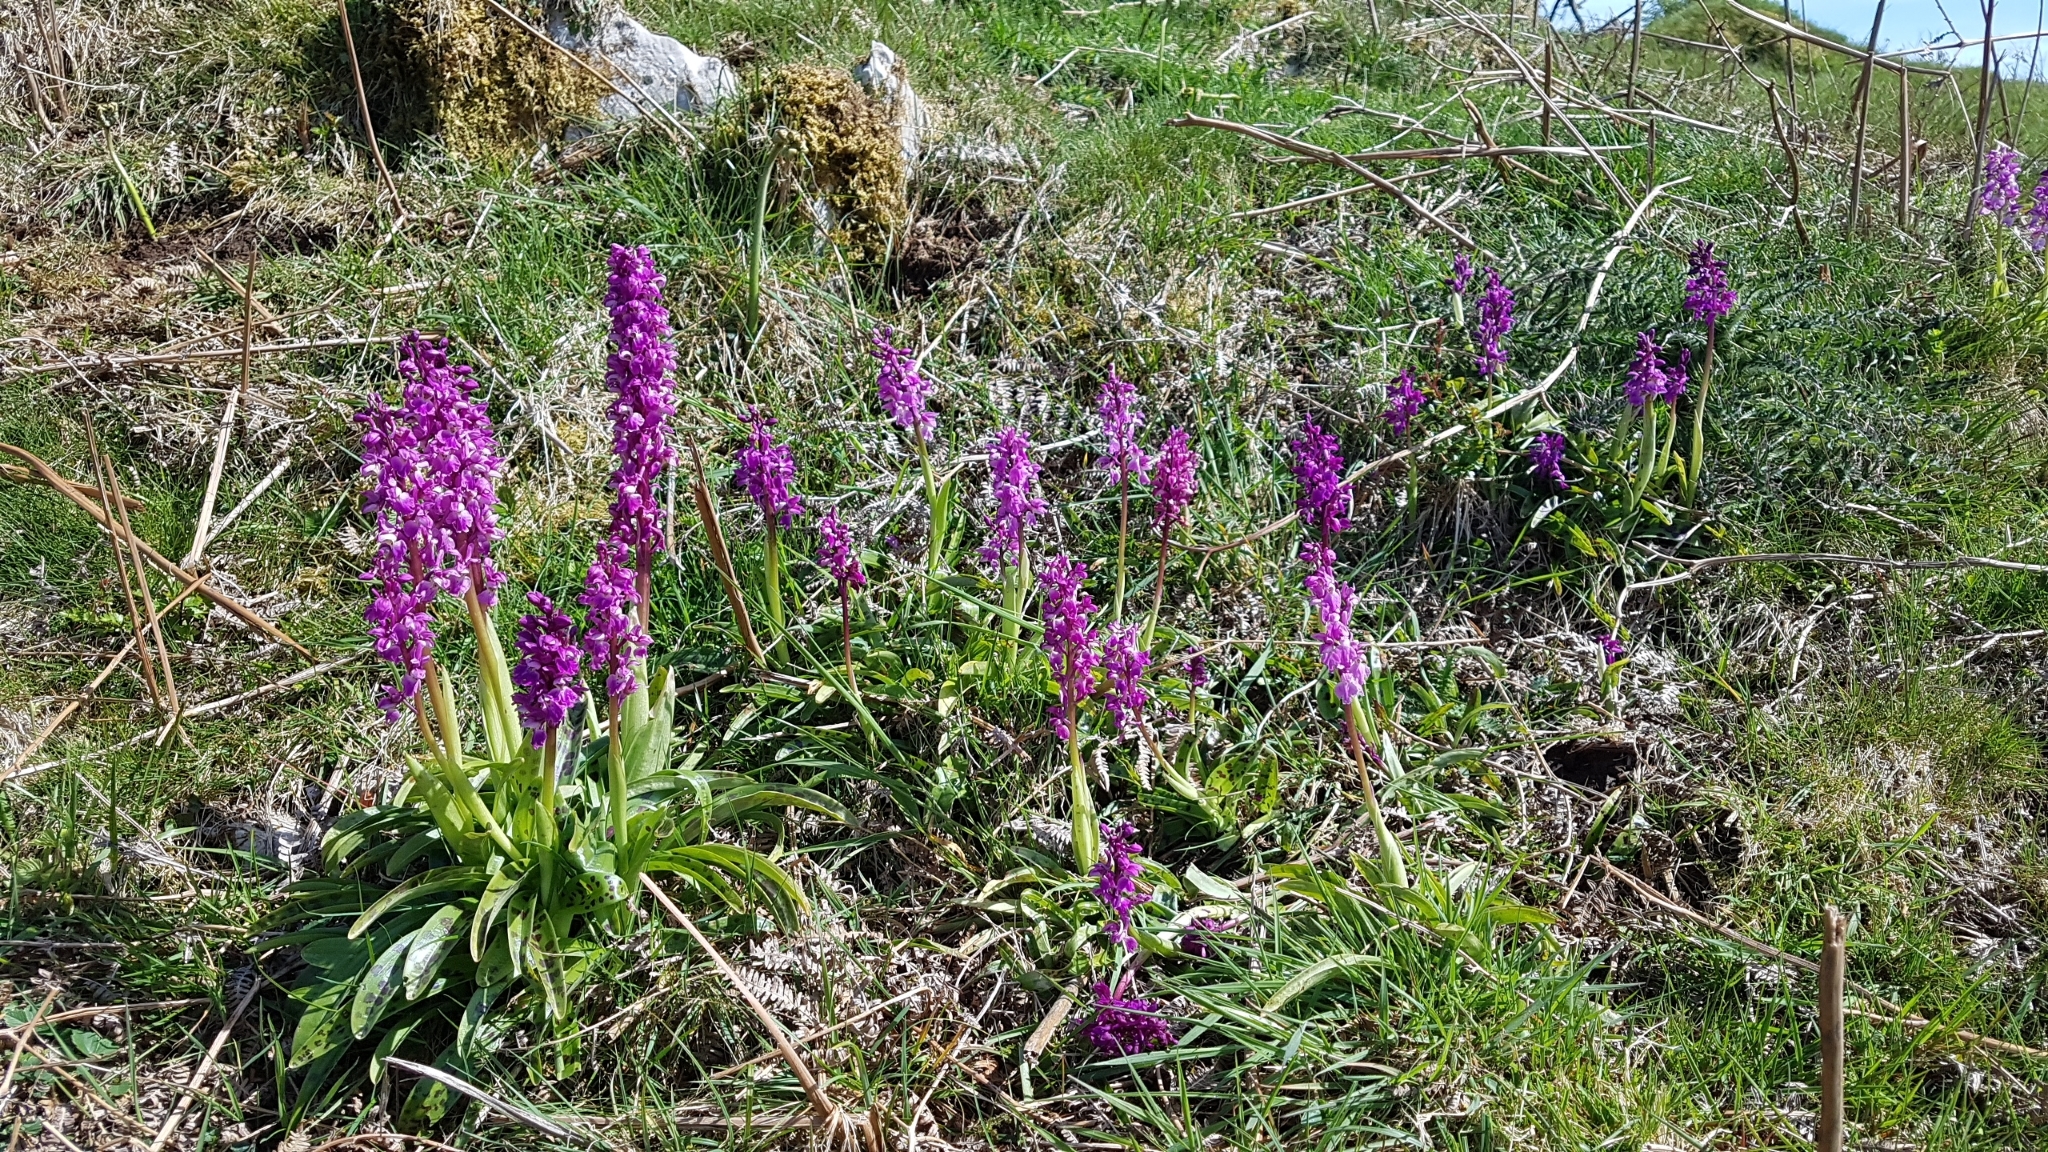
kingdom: Plantae
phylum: Tracheophyta
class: Liliopsida
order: Asparagales
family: Orchidaceae
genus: Orchis
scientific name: Orchis mascula
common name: Early-purple orchid
